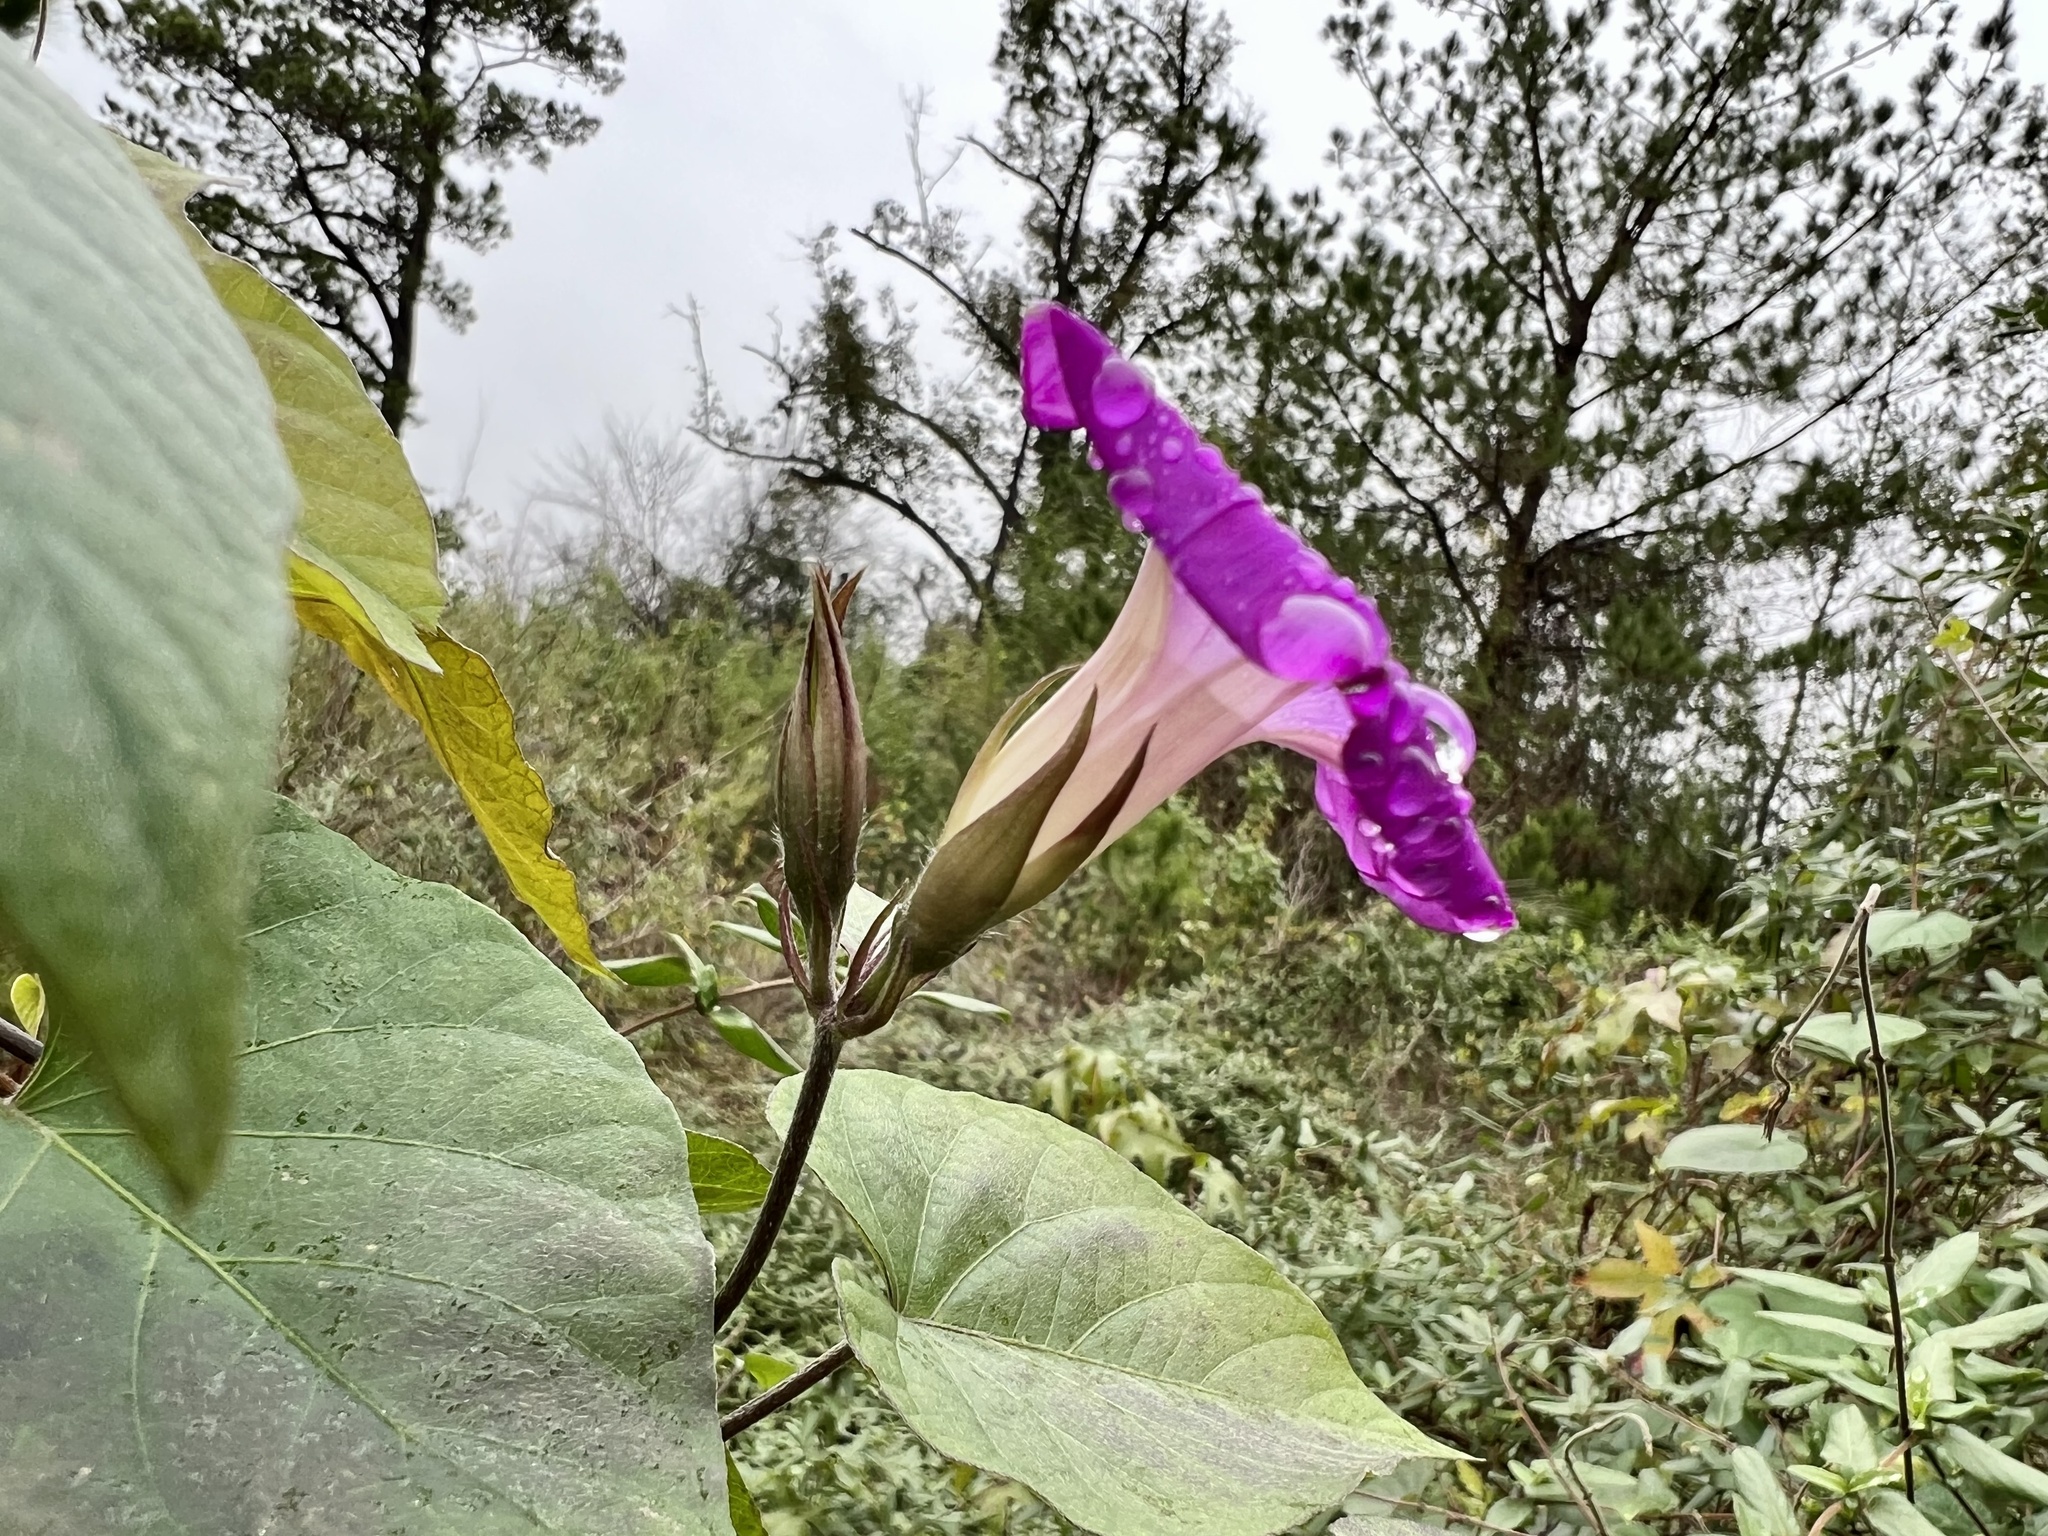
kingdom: Plantae
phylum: Tracheophyta
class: Magnoliopsida
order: Solanales
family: Convolvulaceae
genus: Ipomoea
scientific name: Ipomoea indica
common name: Blue dawnflower
